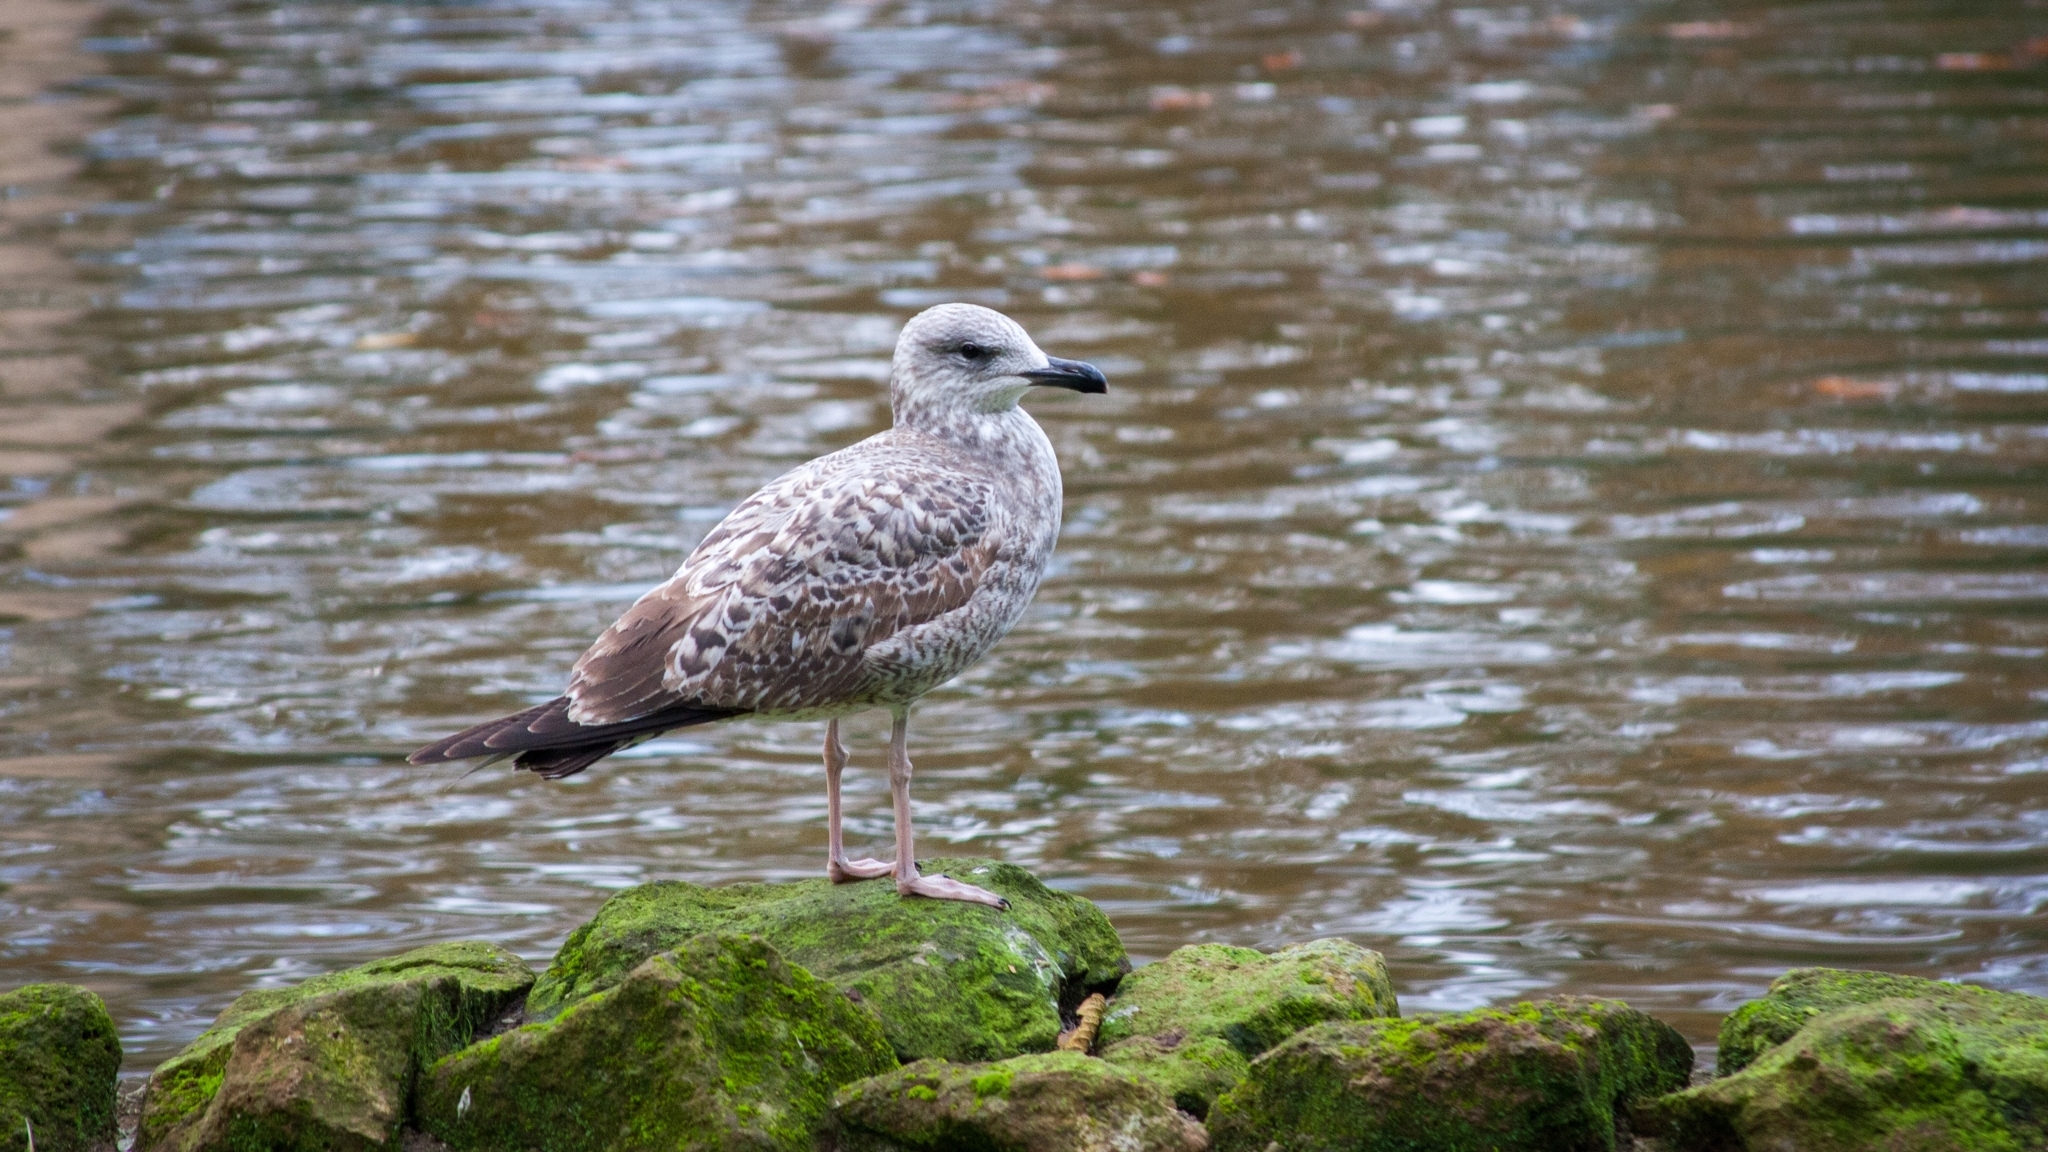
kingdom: Animalia
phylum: Chordata
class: Aves
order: Charadriiformes
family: Laridae
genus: Larus
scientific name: Larus michahellis
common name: Yellow-legged gull
